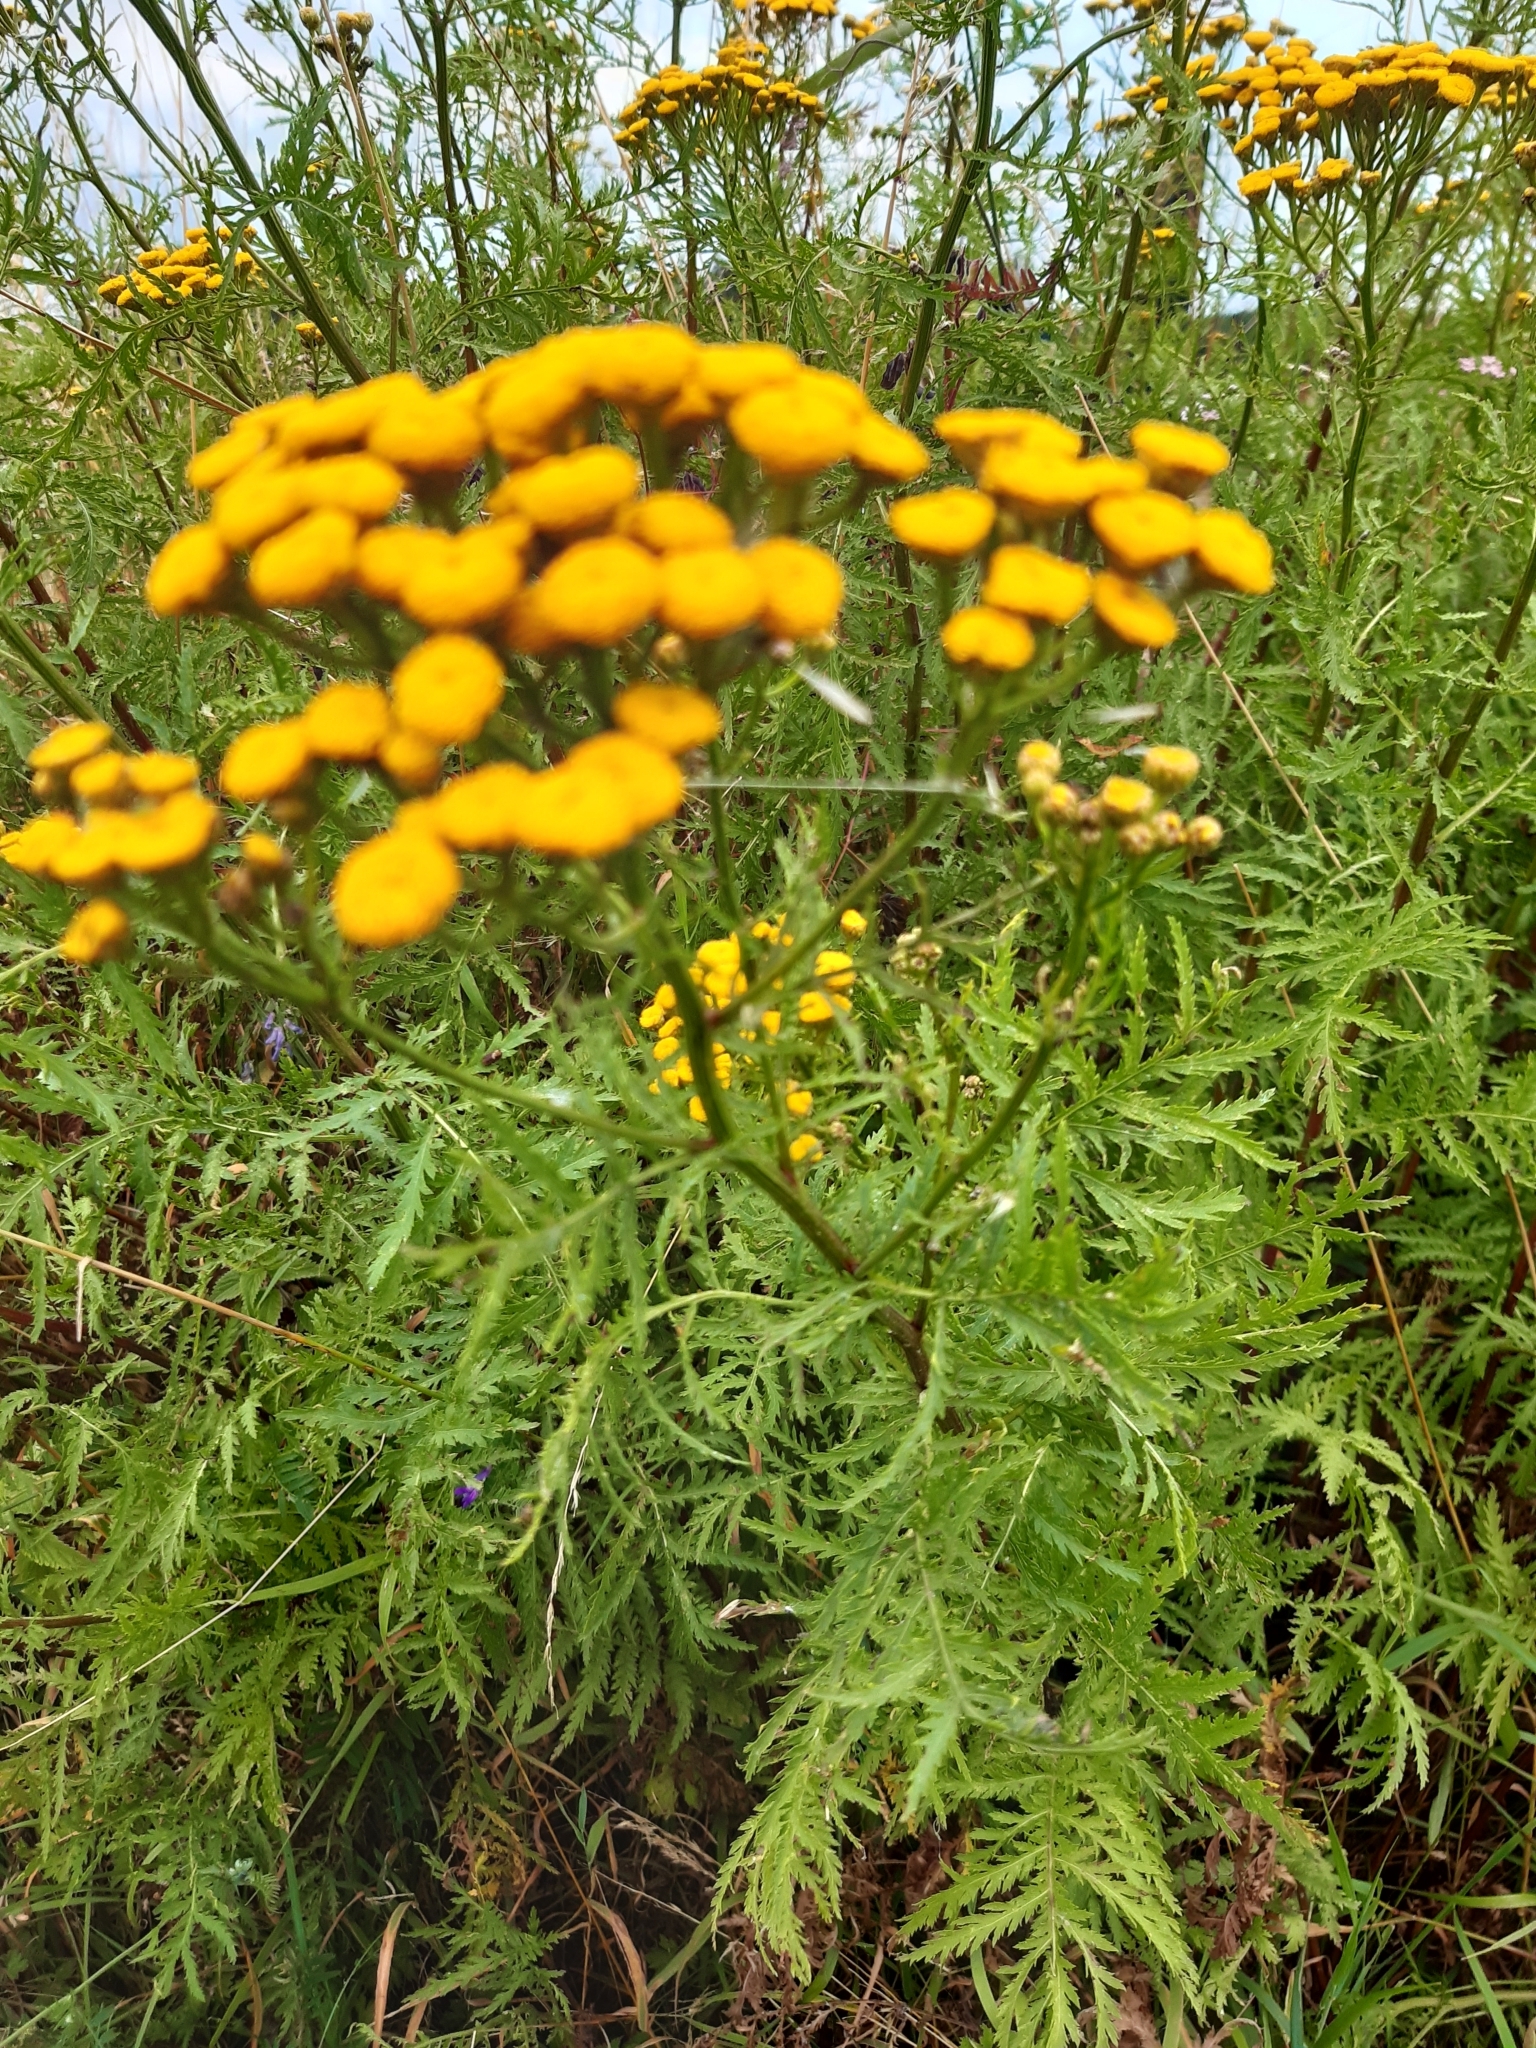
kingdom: Plantae
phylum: Tracheophyta
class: Magnoliopsida
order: Asterales
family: Asteraceae
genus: Tanacetum
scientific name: Tanacetum vulgare
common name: Common tansy
